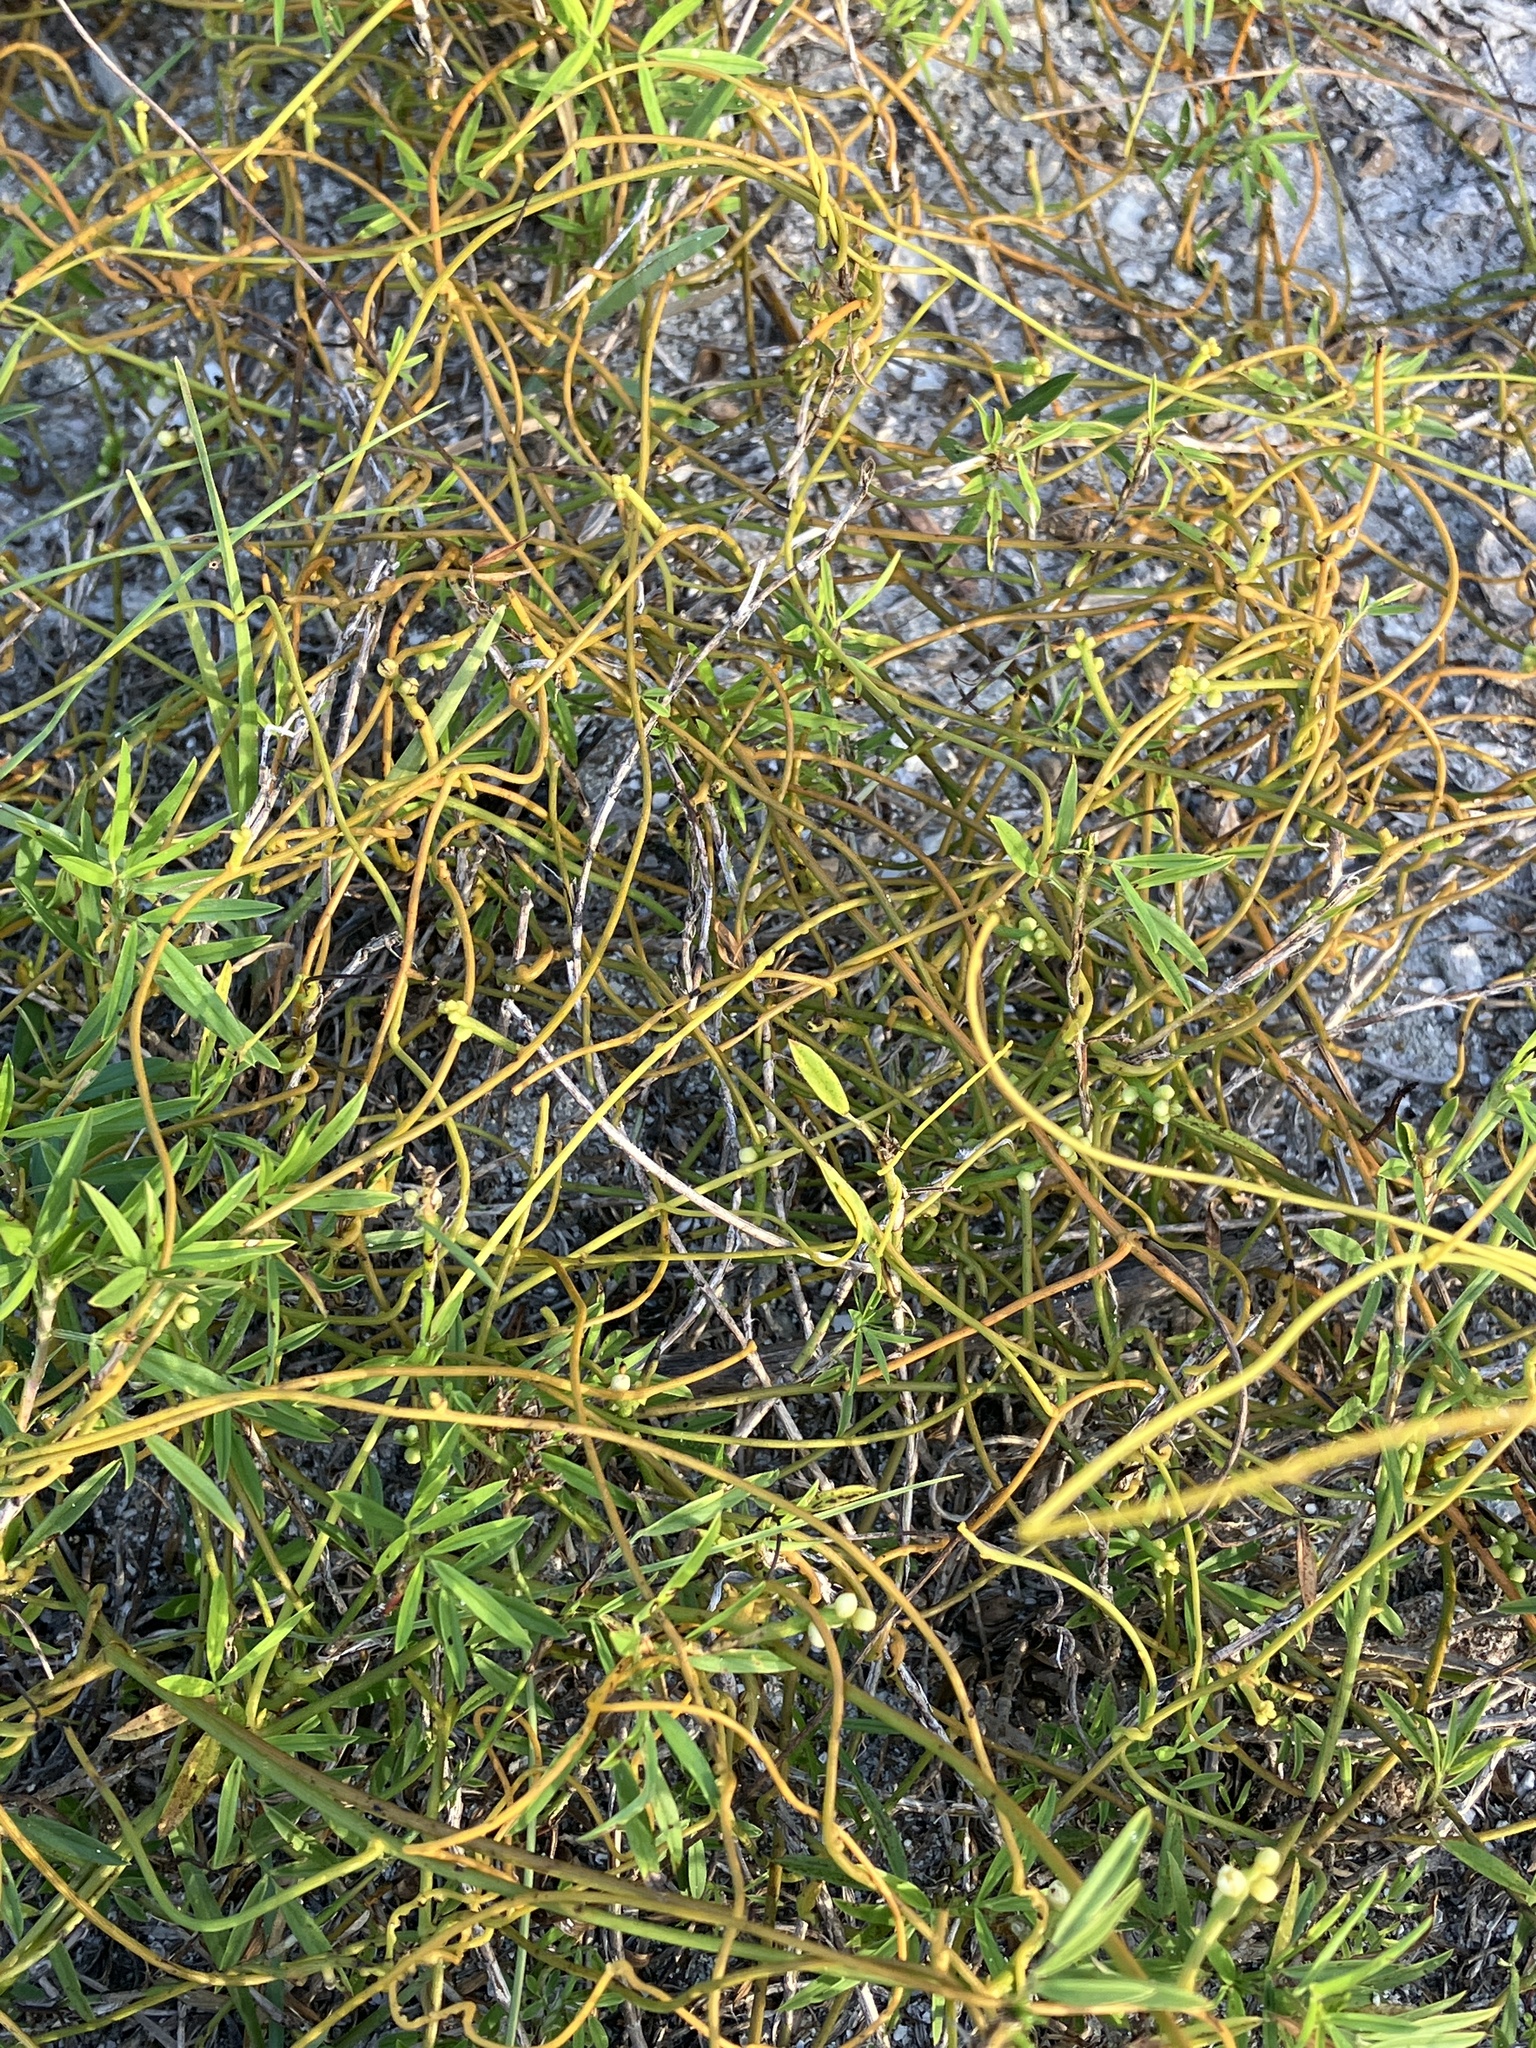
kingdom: Plantae
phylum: Tracheophyta
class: Magnoliopsida
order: Laurales
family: Lauraceae
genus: Cassytha
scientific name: Cassytha filiformis
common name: Dodder-laurel
